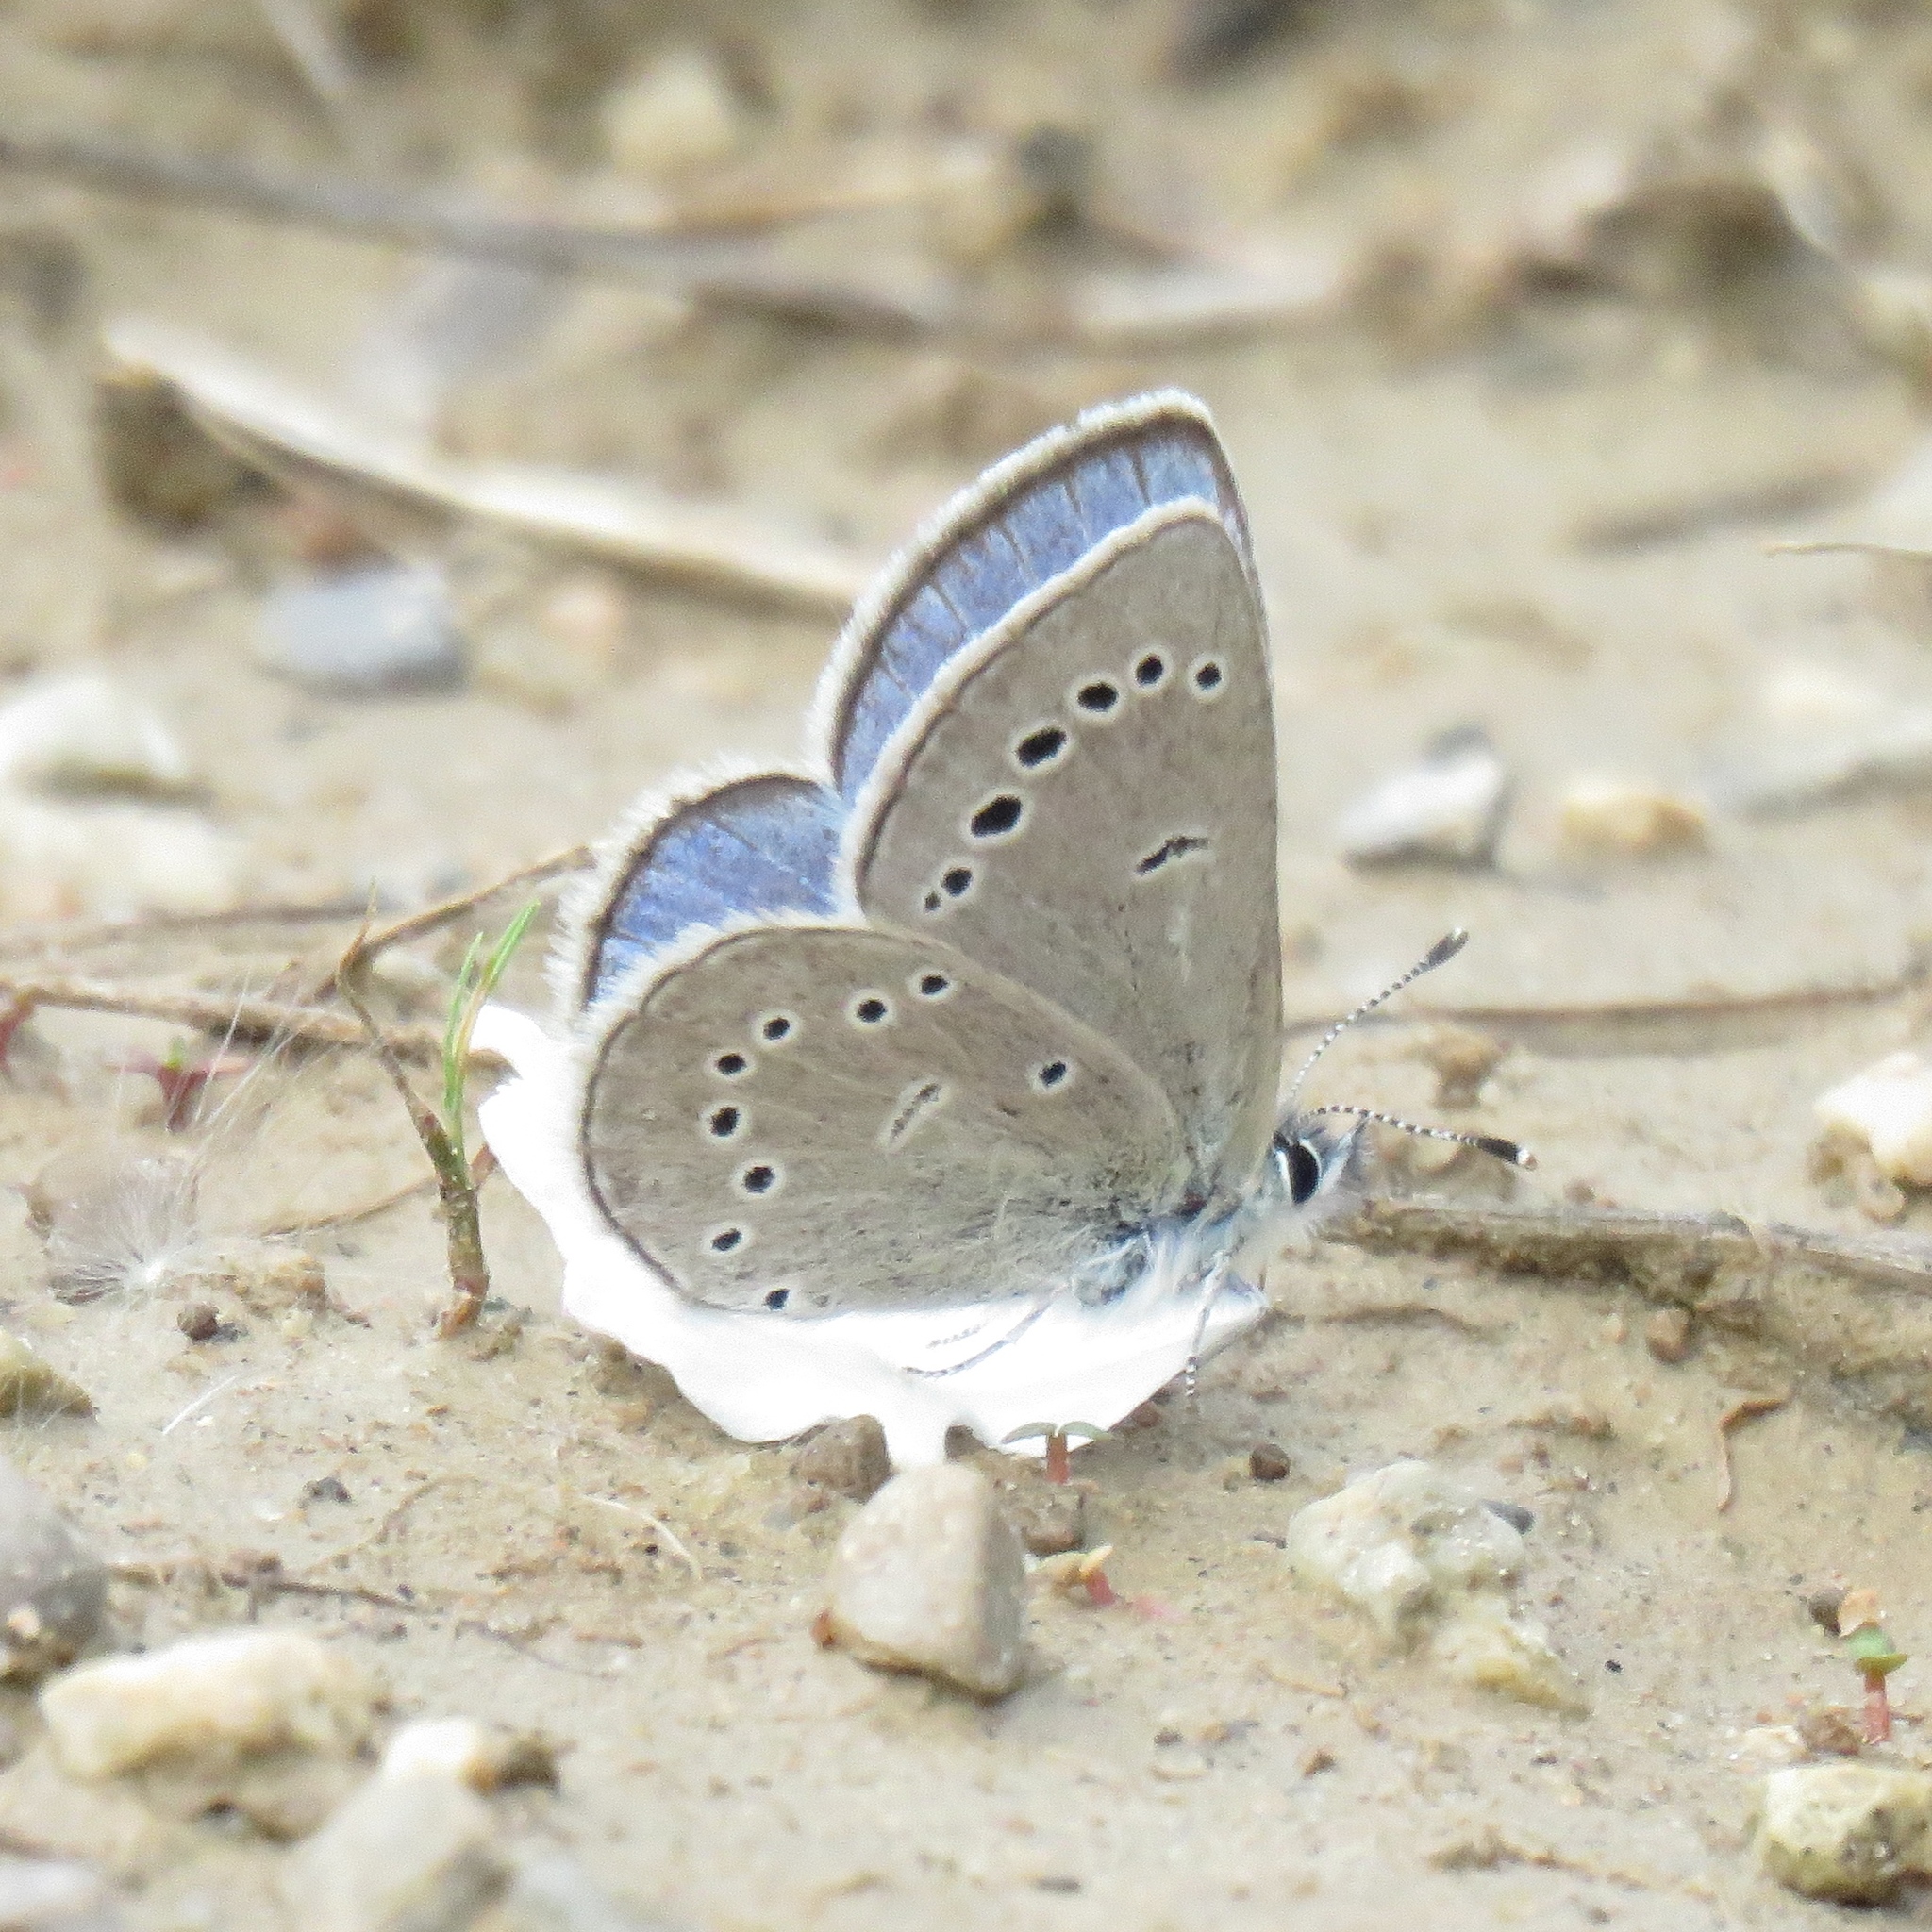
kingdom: Animalia
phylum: Arthropoda
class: Insecta
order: Lepidoptera
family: Lycaenidae
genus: Glaucopsyche
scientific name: Glaucopsyche lygdamus
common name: Silvery blue
